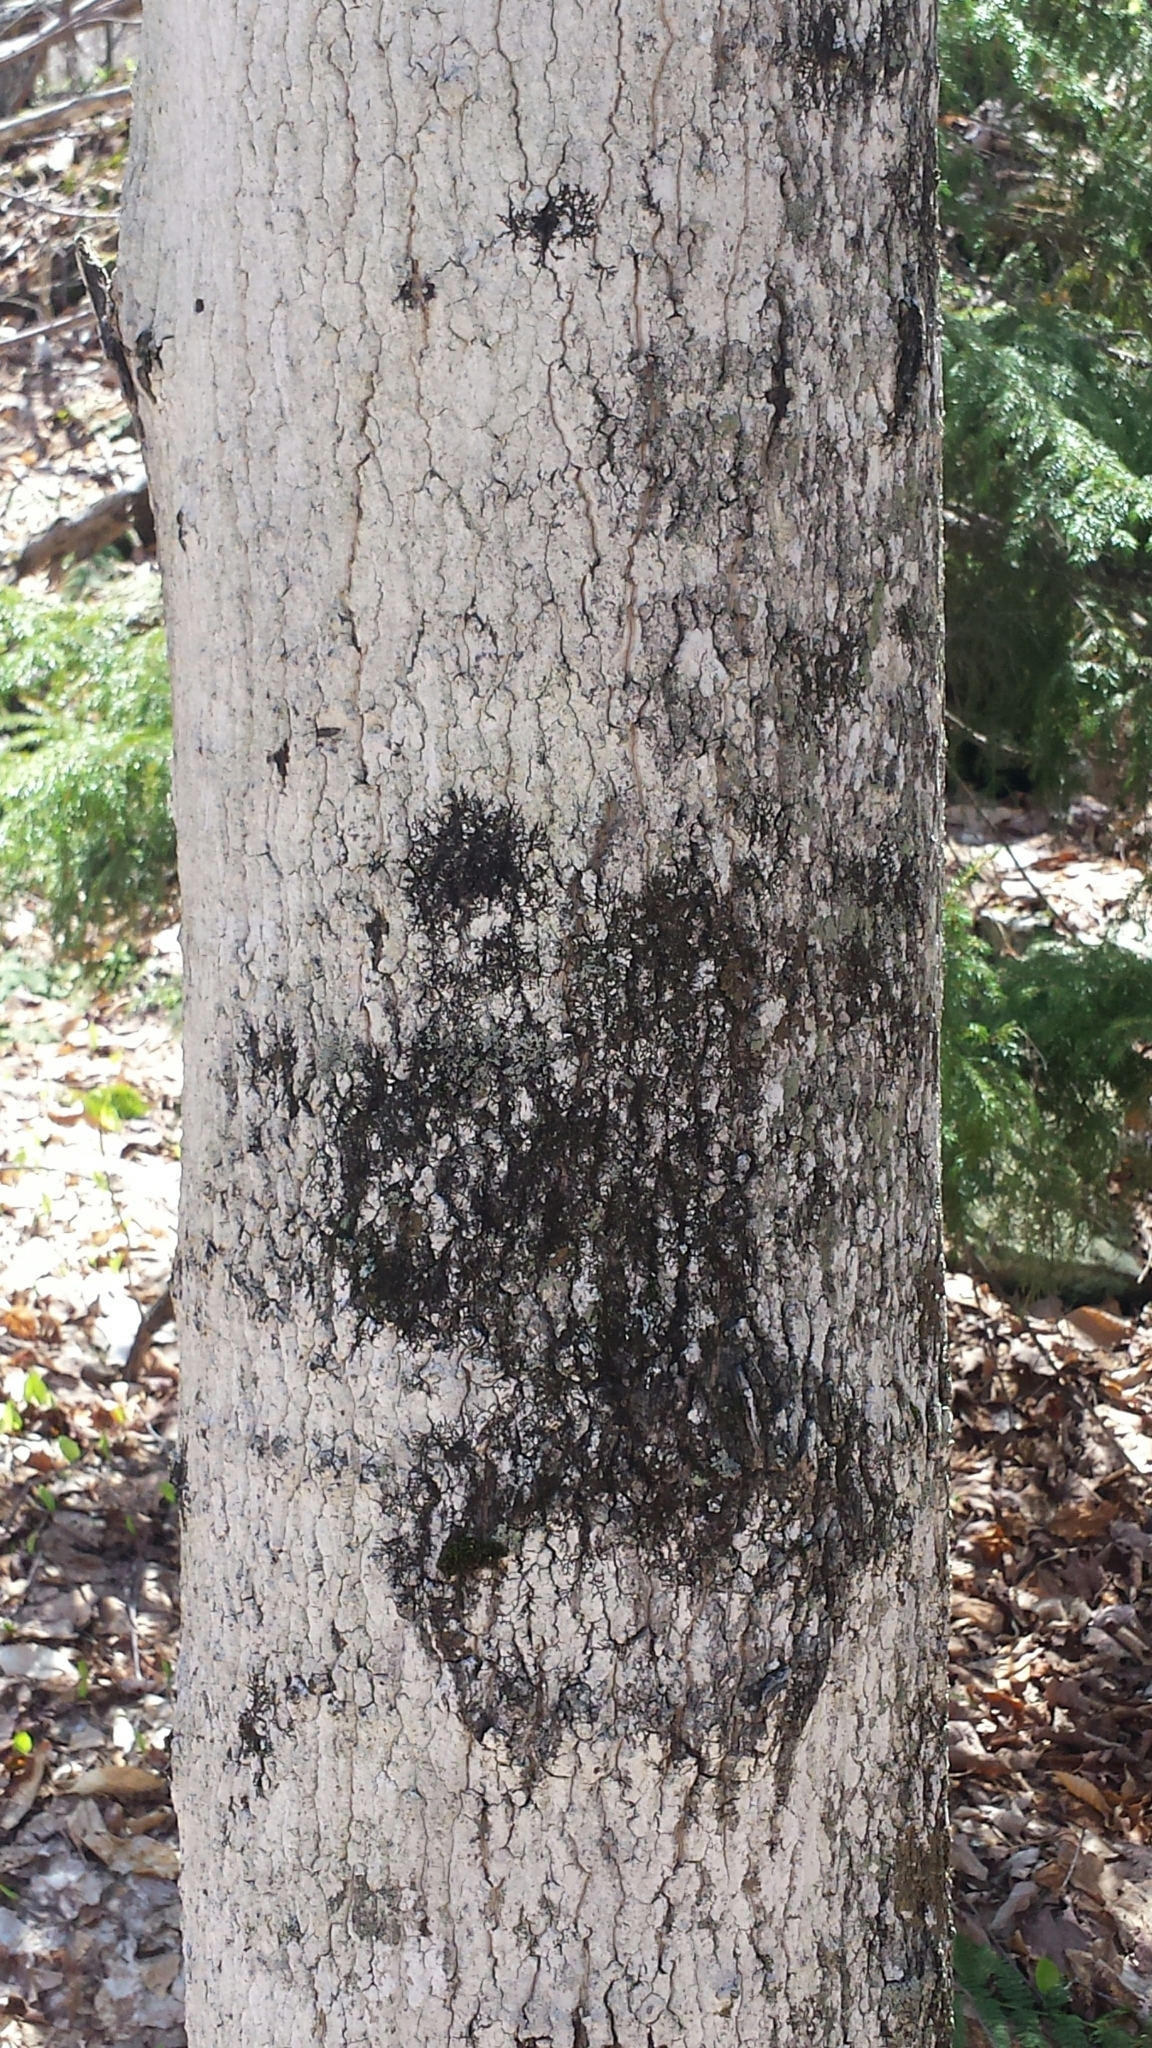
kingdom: Plantae
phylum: Tracheophyta
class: Magnoliopsida
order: Sapindales
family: Sapindaceae
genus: Acer
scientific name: Acer saccharum
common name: Sugar maple
